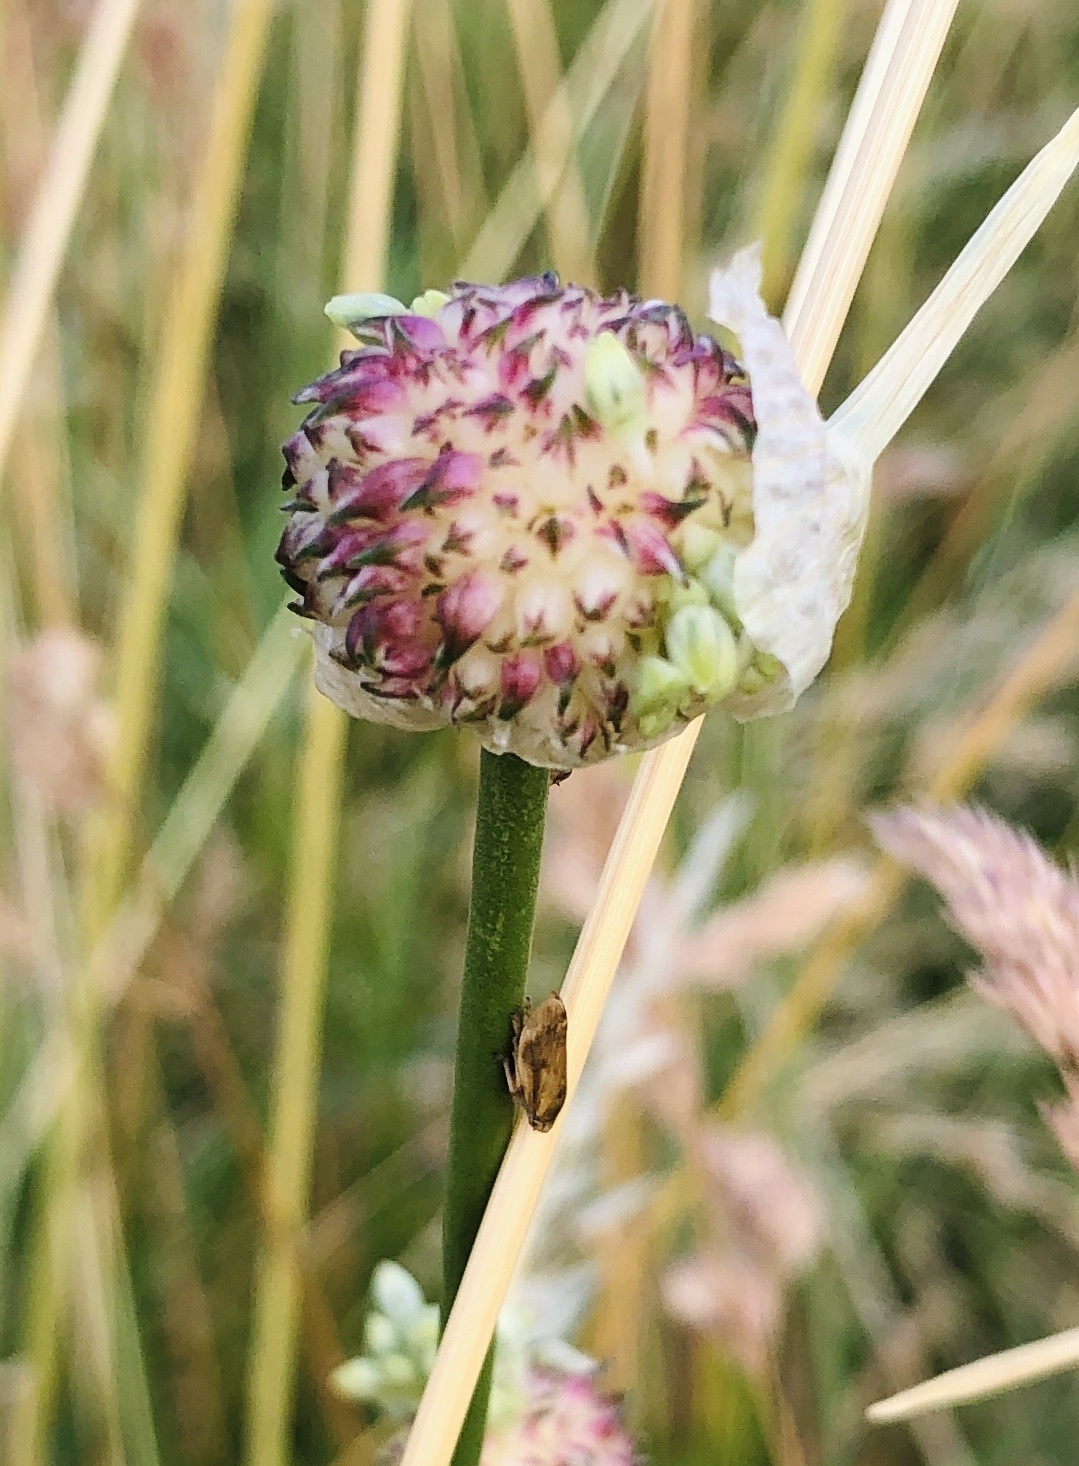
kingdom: Plantae
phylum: Tracheophyta
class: Liliopsida
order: Asparagales
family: Amaryllidaceae
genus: Allium
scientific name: Allium vineale
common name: Crow garlic
